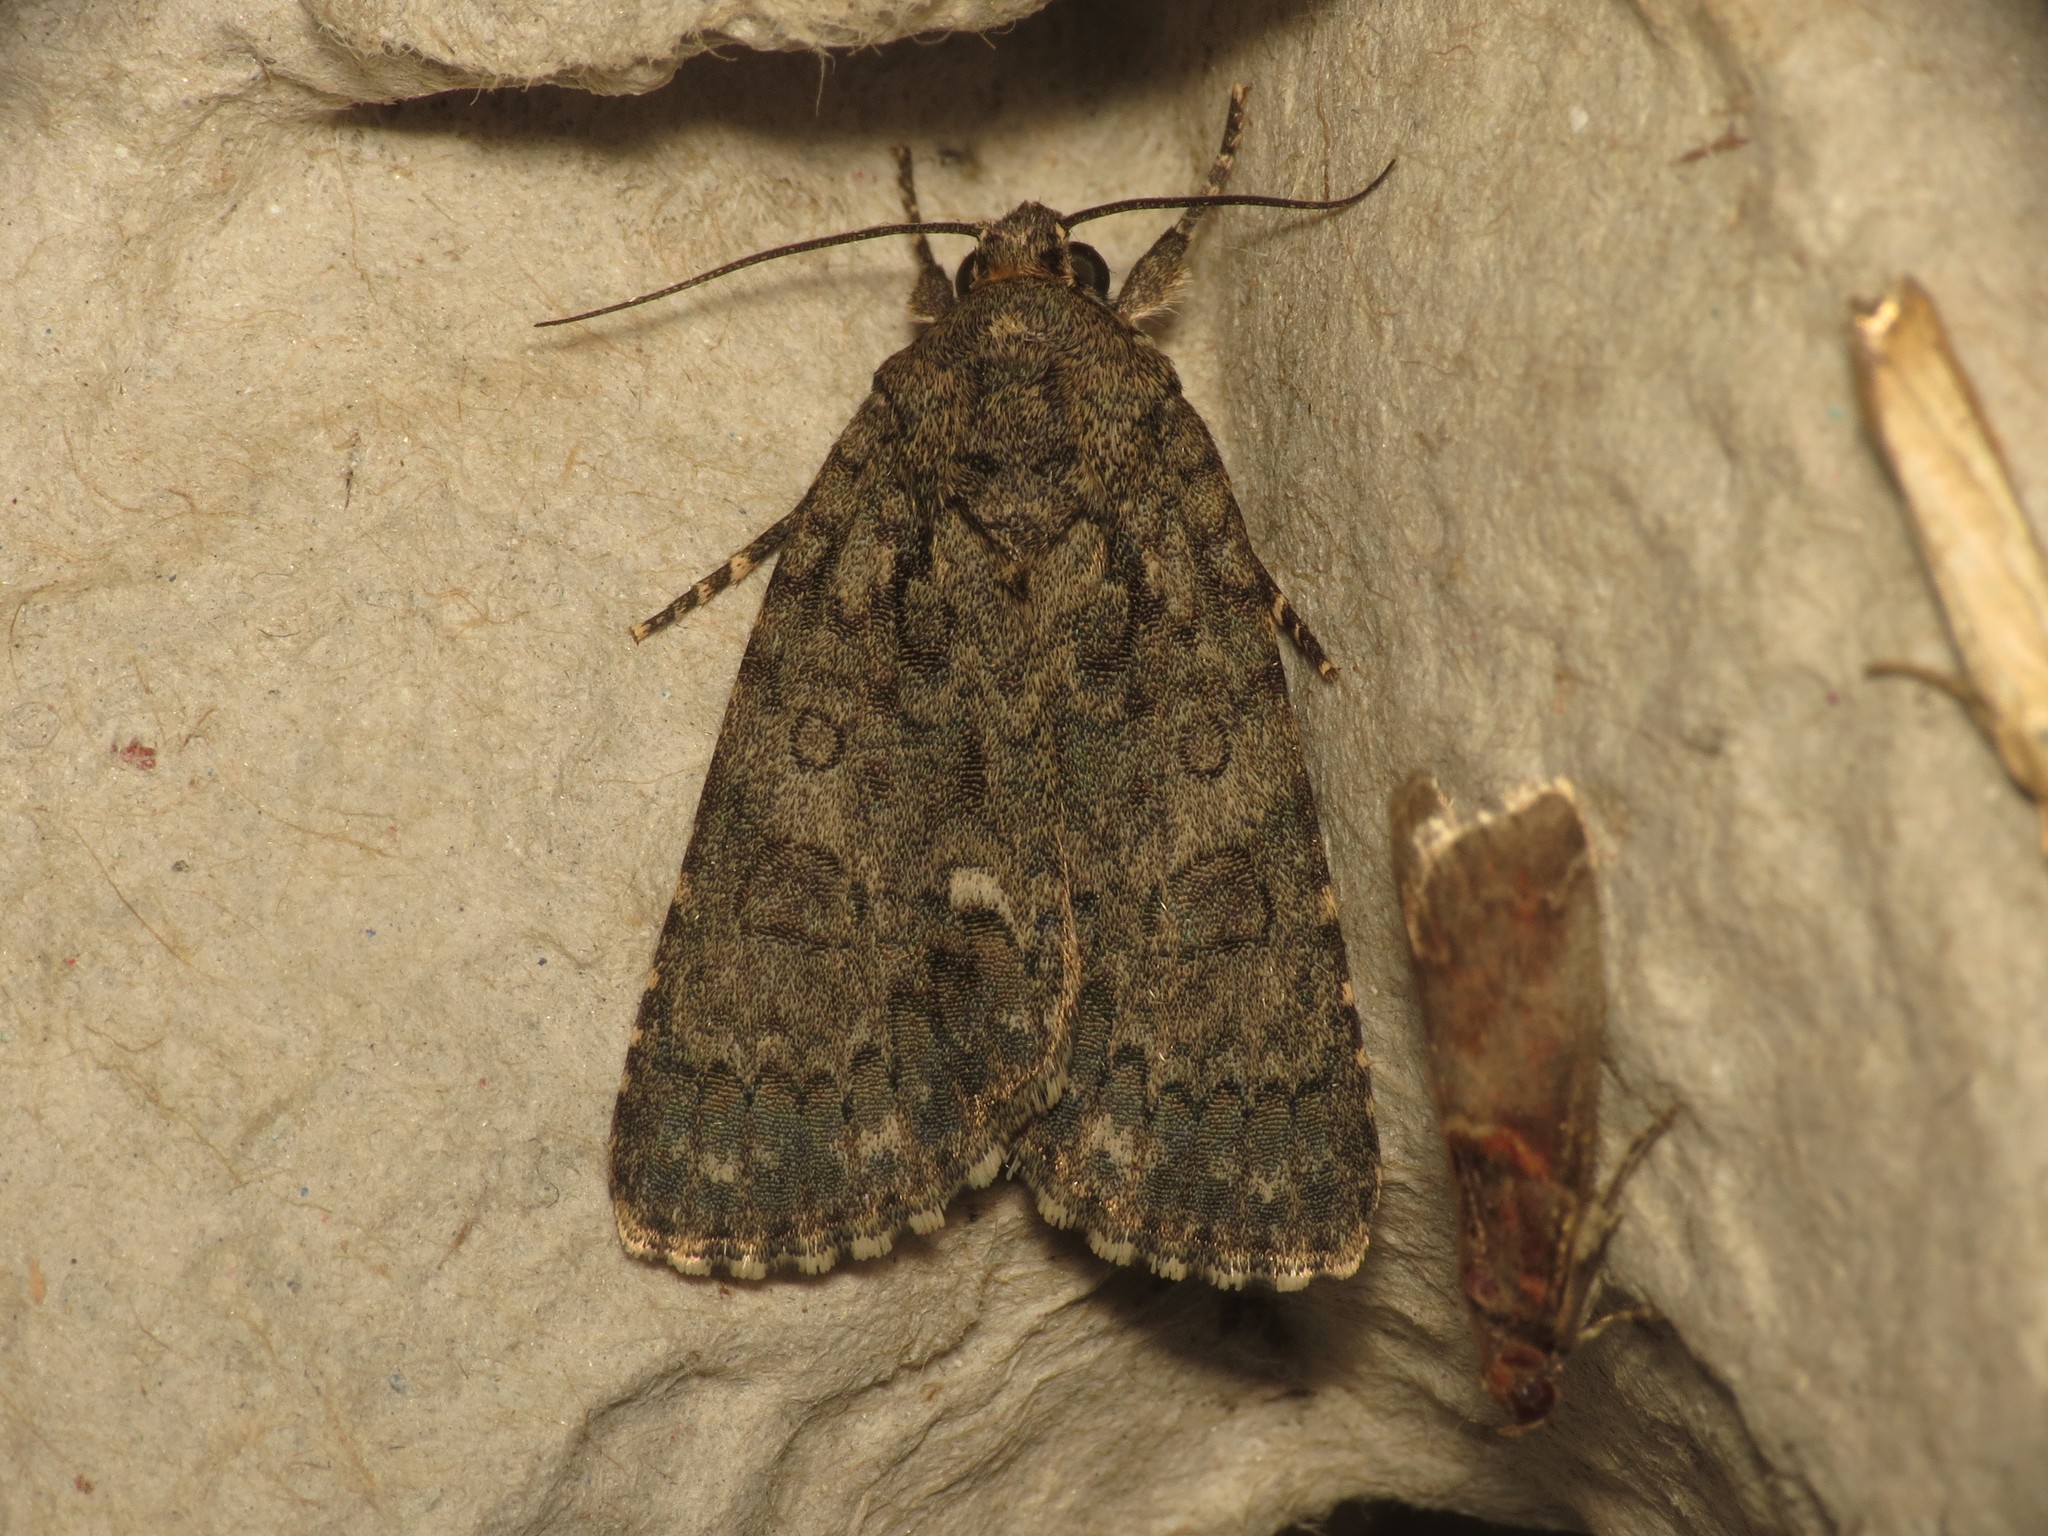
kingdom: Animalia
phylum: Arthropoda
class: Insecta
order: Lepidoptera
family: Noctuidae
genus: Acronicta
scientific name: Acronicta rumicis
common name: Knot grass
